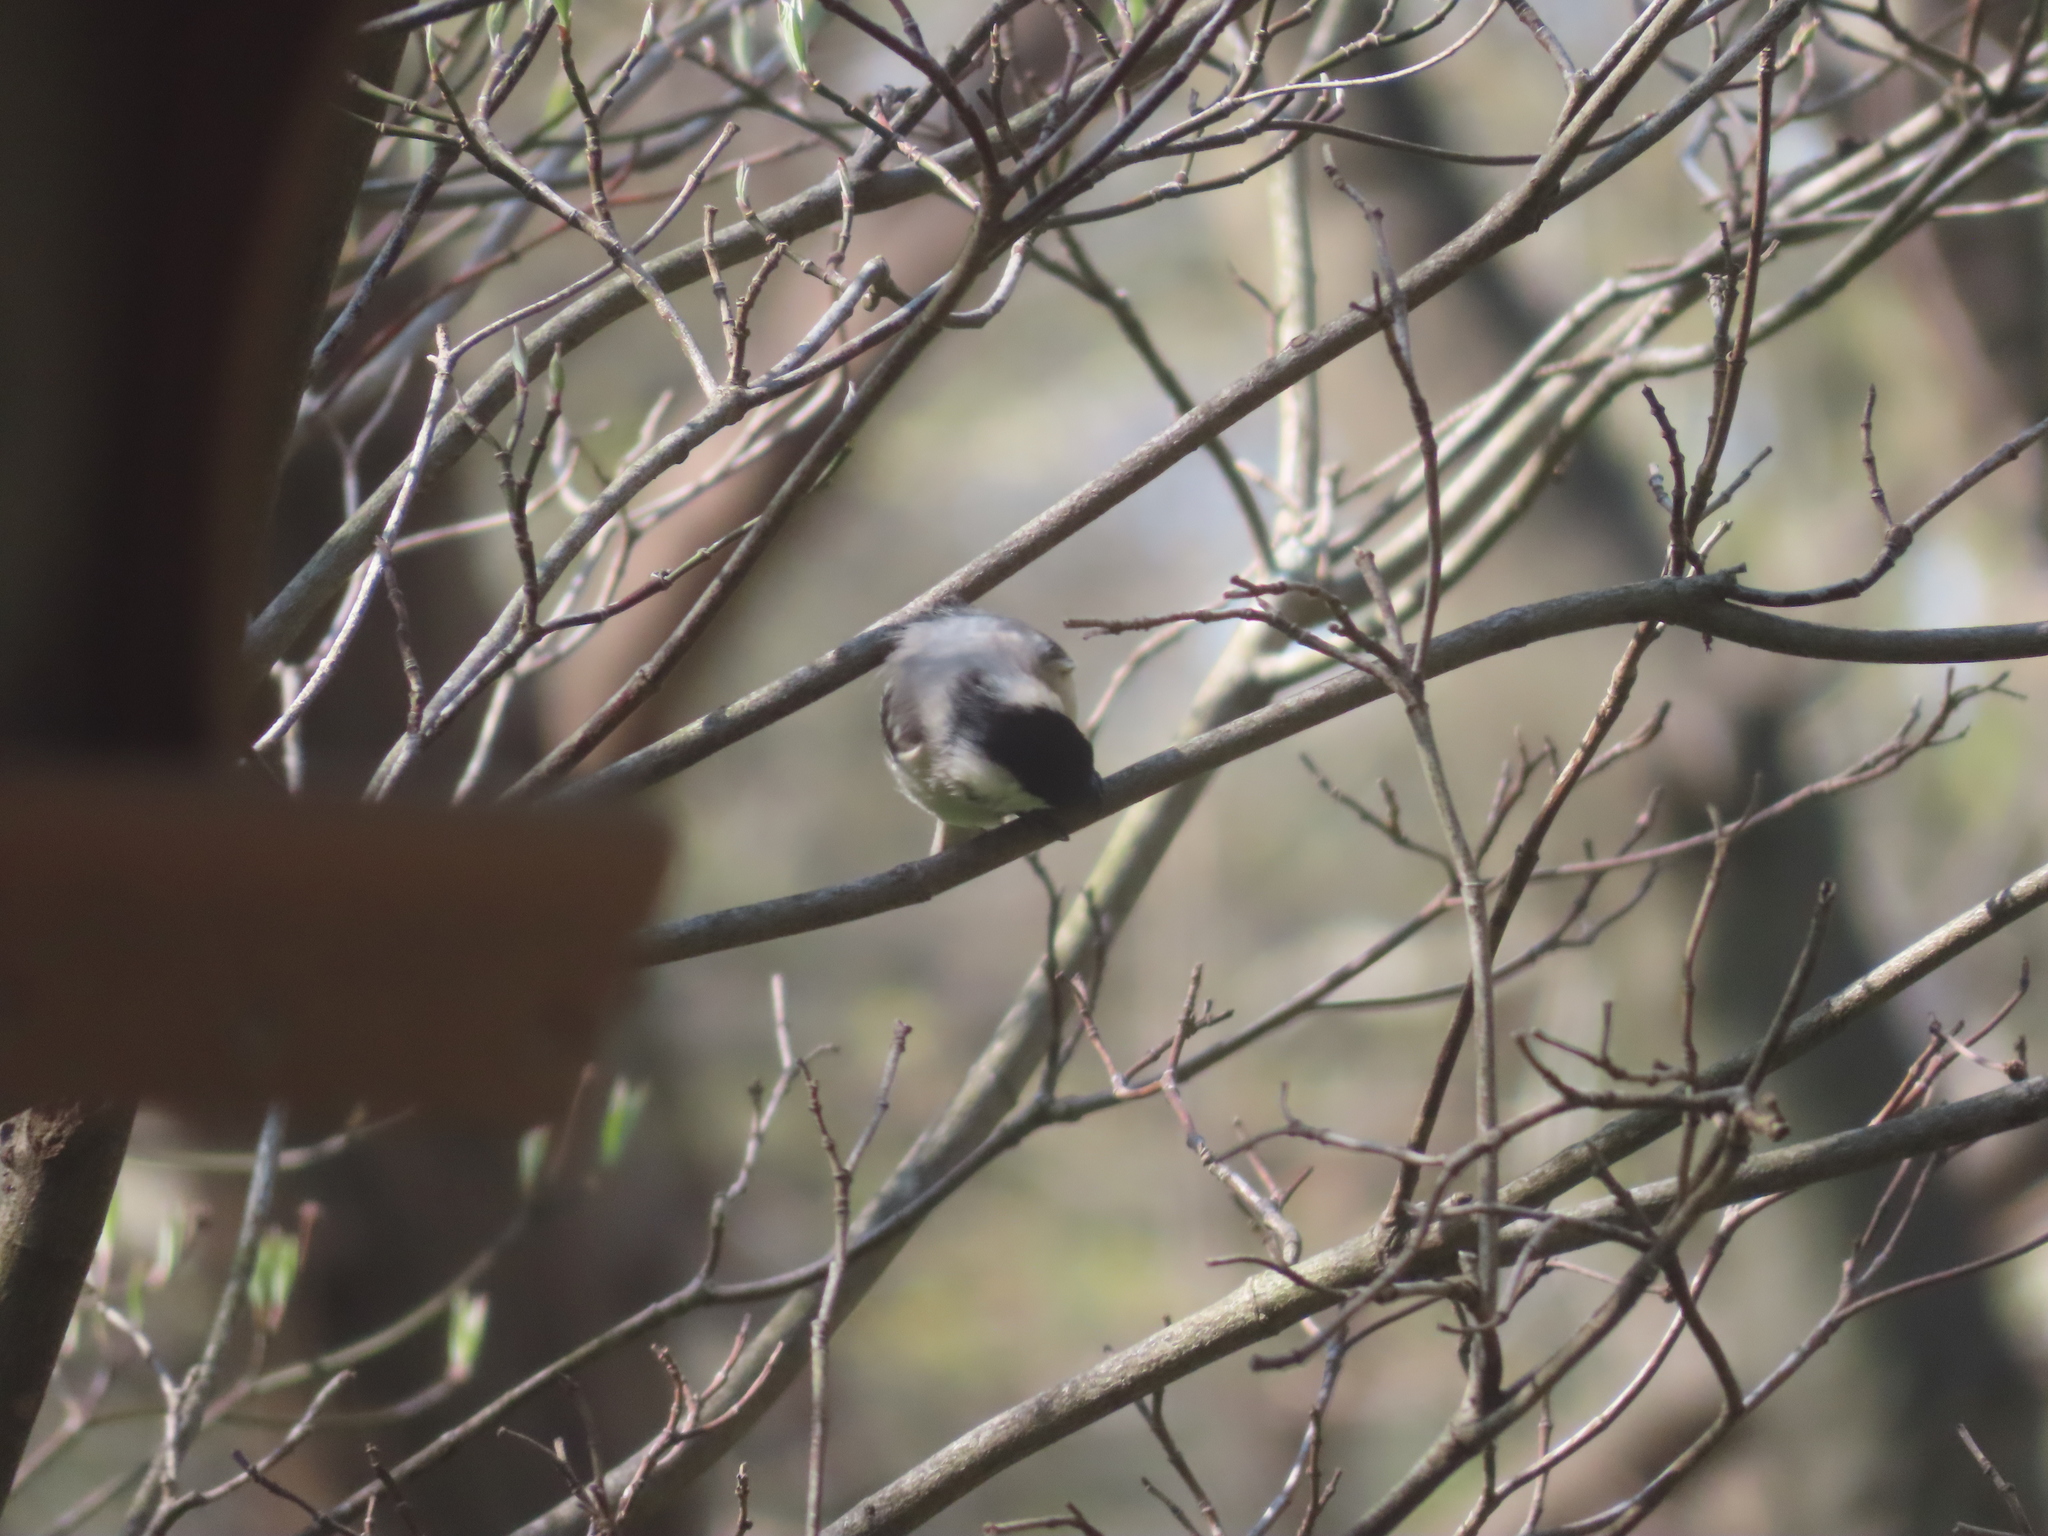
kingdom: Animalia
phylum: Chordata
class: Aves
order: Passeriformes
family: Paridae
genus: Poecile
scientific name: Poecile carolinensis
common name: Carolina chickadee
